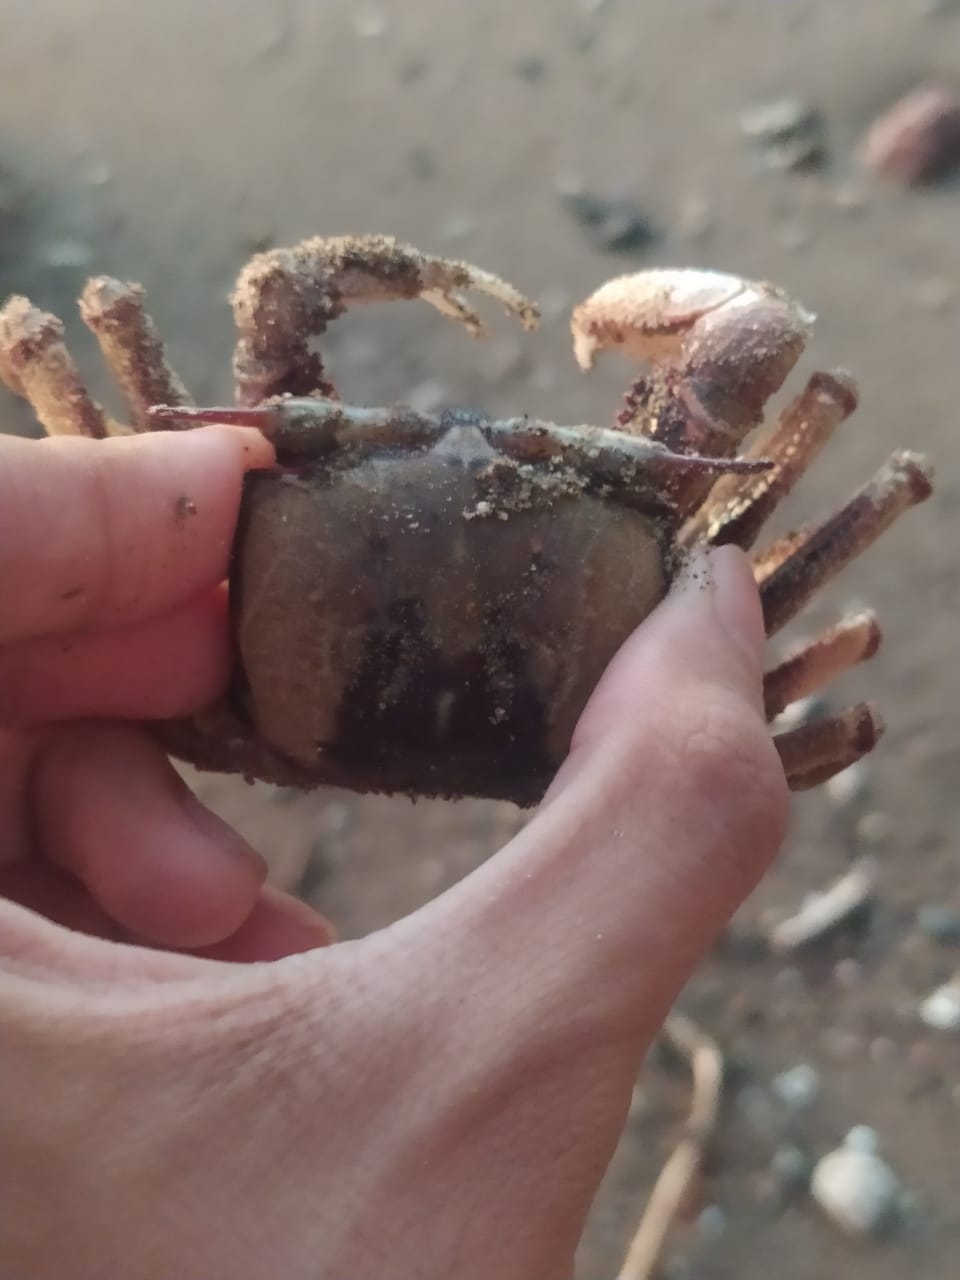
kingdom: Animalia
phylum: Arthropoda
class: Malacostraca
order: Decapoda
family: Ocypodidae
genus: Ocypode
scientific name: Ocypode ceratophthalmus
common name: Indo-pacific ghost crab
